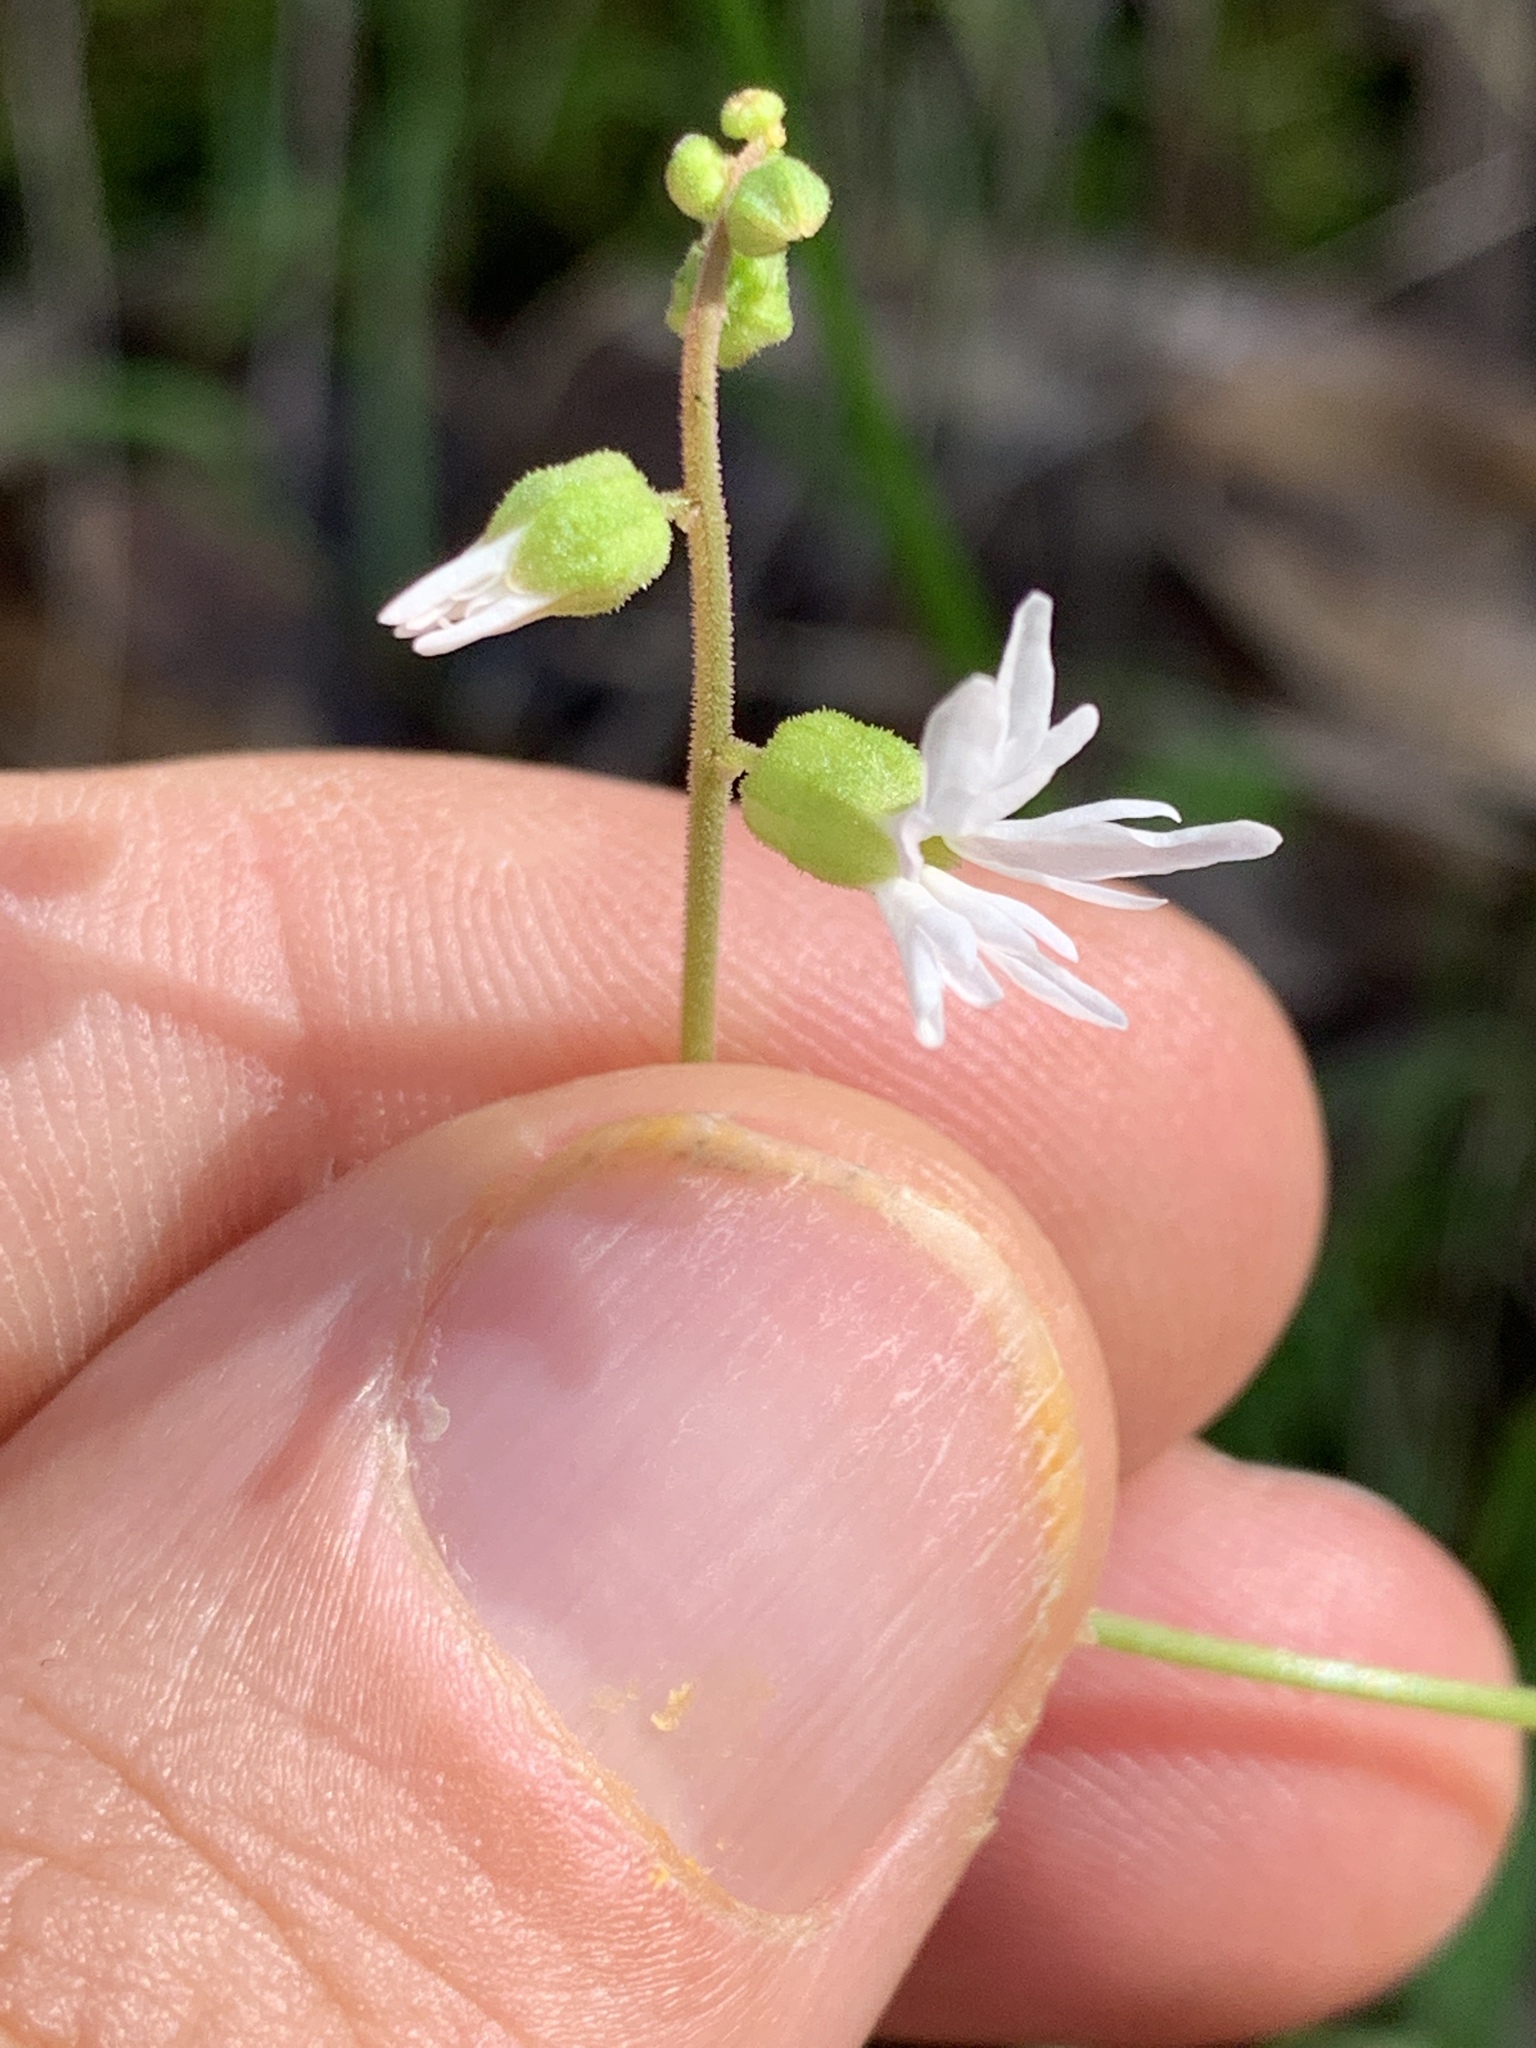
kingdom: Plantae
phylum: Tracheophyta
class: Magnoliopsida
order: Saxifragales
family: Saxifragaceae
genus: Lithophragma
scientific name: Lithophragma heterophyllum
